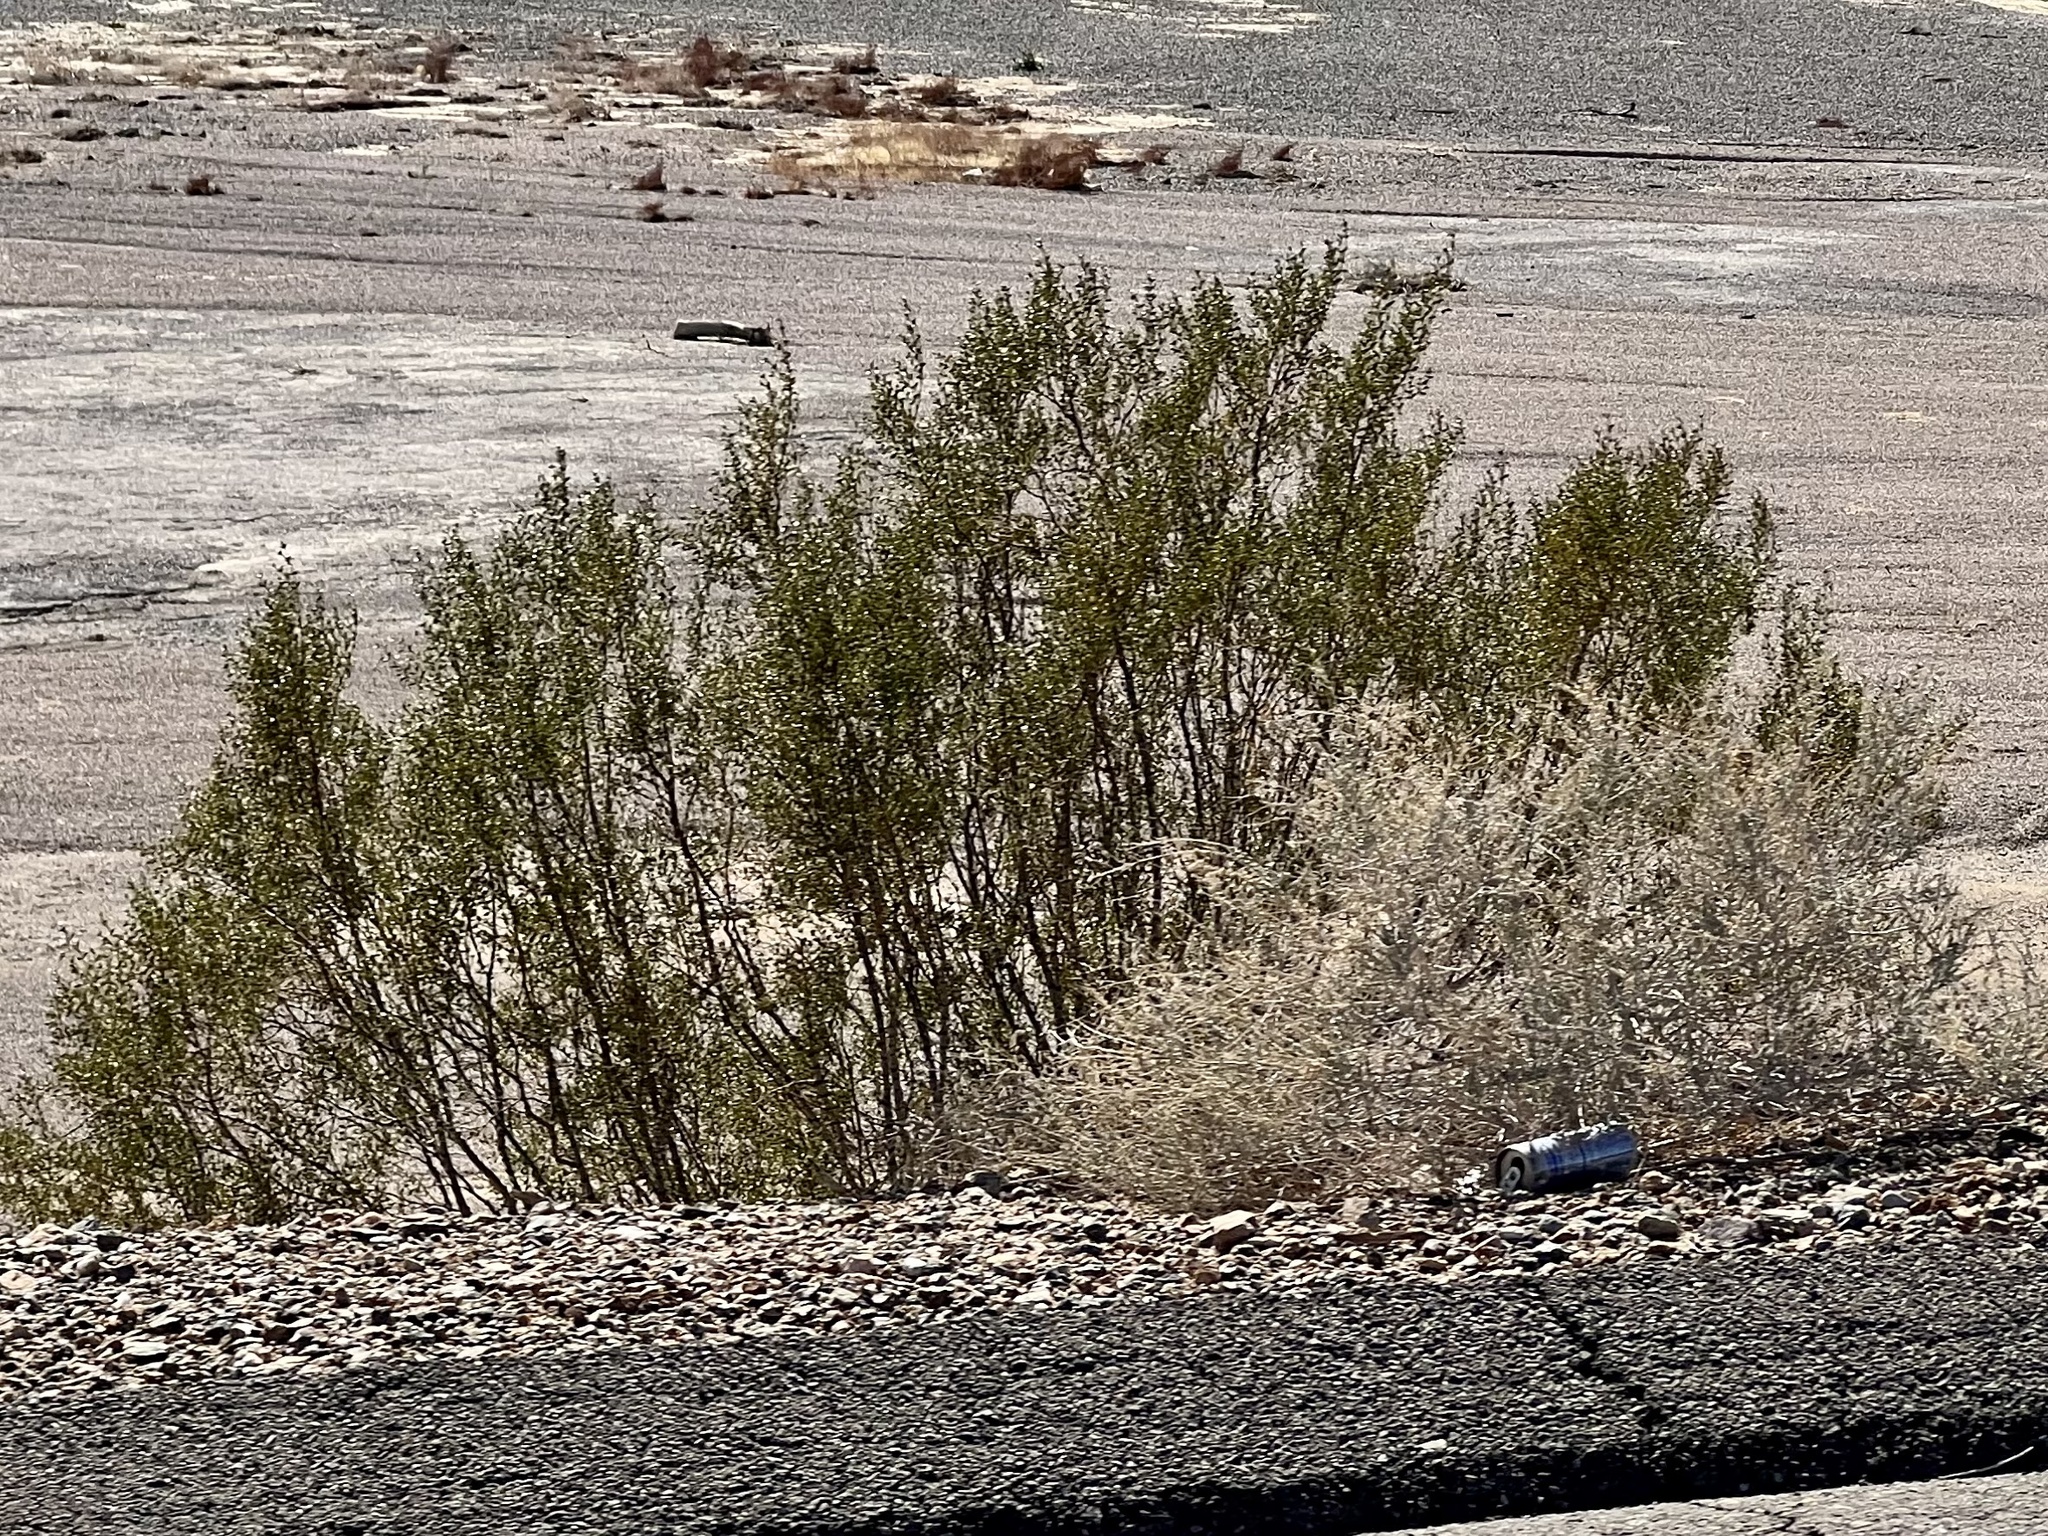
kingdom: Plantae
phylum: Tracheophyta
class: Magnoliopsida
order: Zygophyllales
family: Zygophyllaceae
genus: Larrea
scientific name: Larrea tridentata
